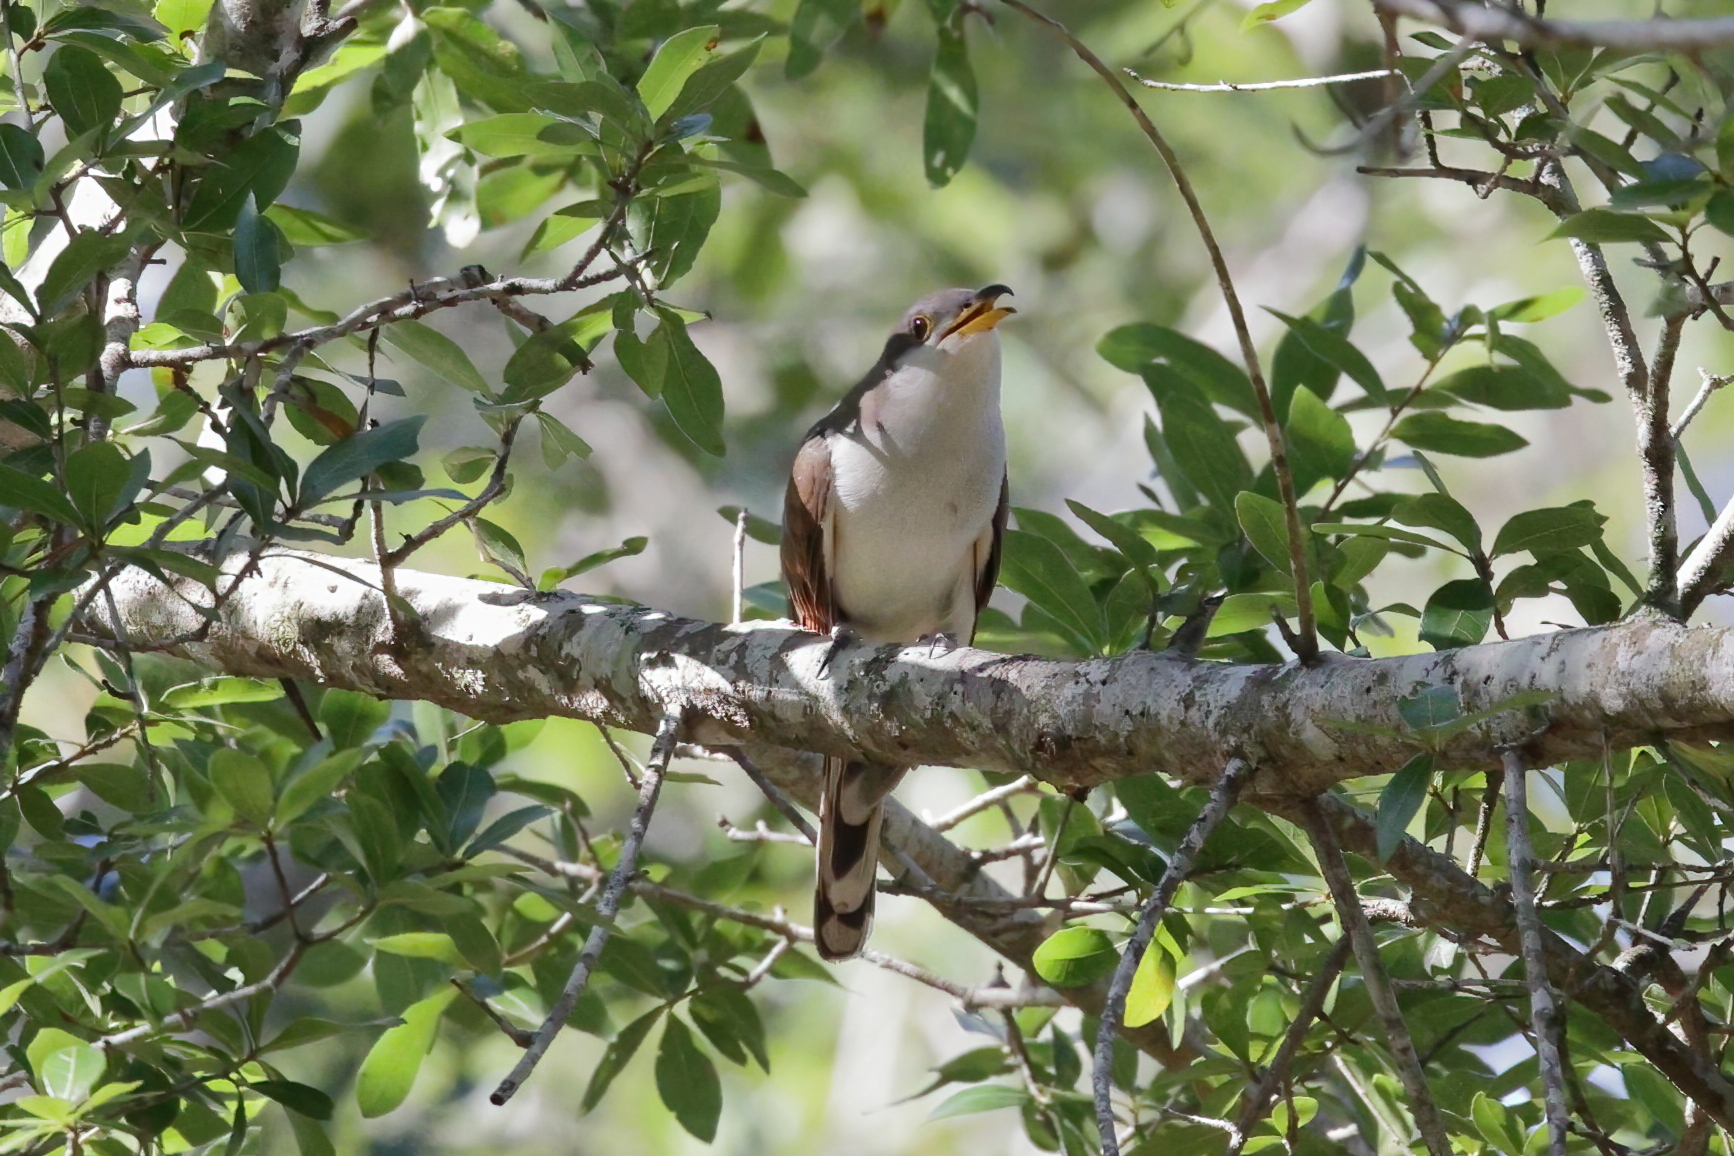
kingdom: Animalia
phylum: Chordata
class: Aves
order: Cuculiformes
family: Cuculidae
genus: Coccyzus
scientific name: Coccyzus americanus
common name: Yellow-billed cuckoo
